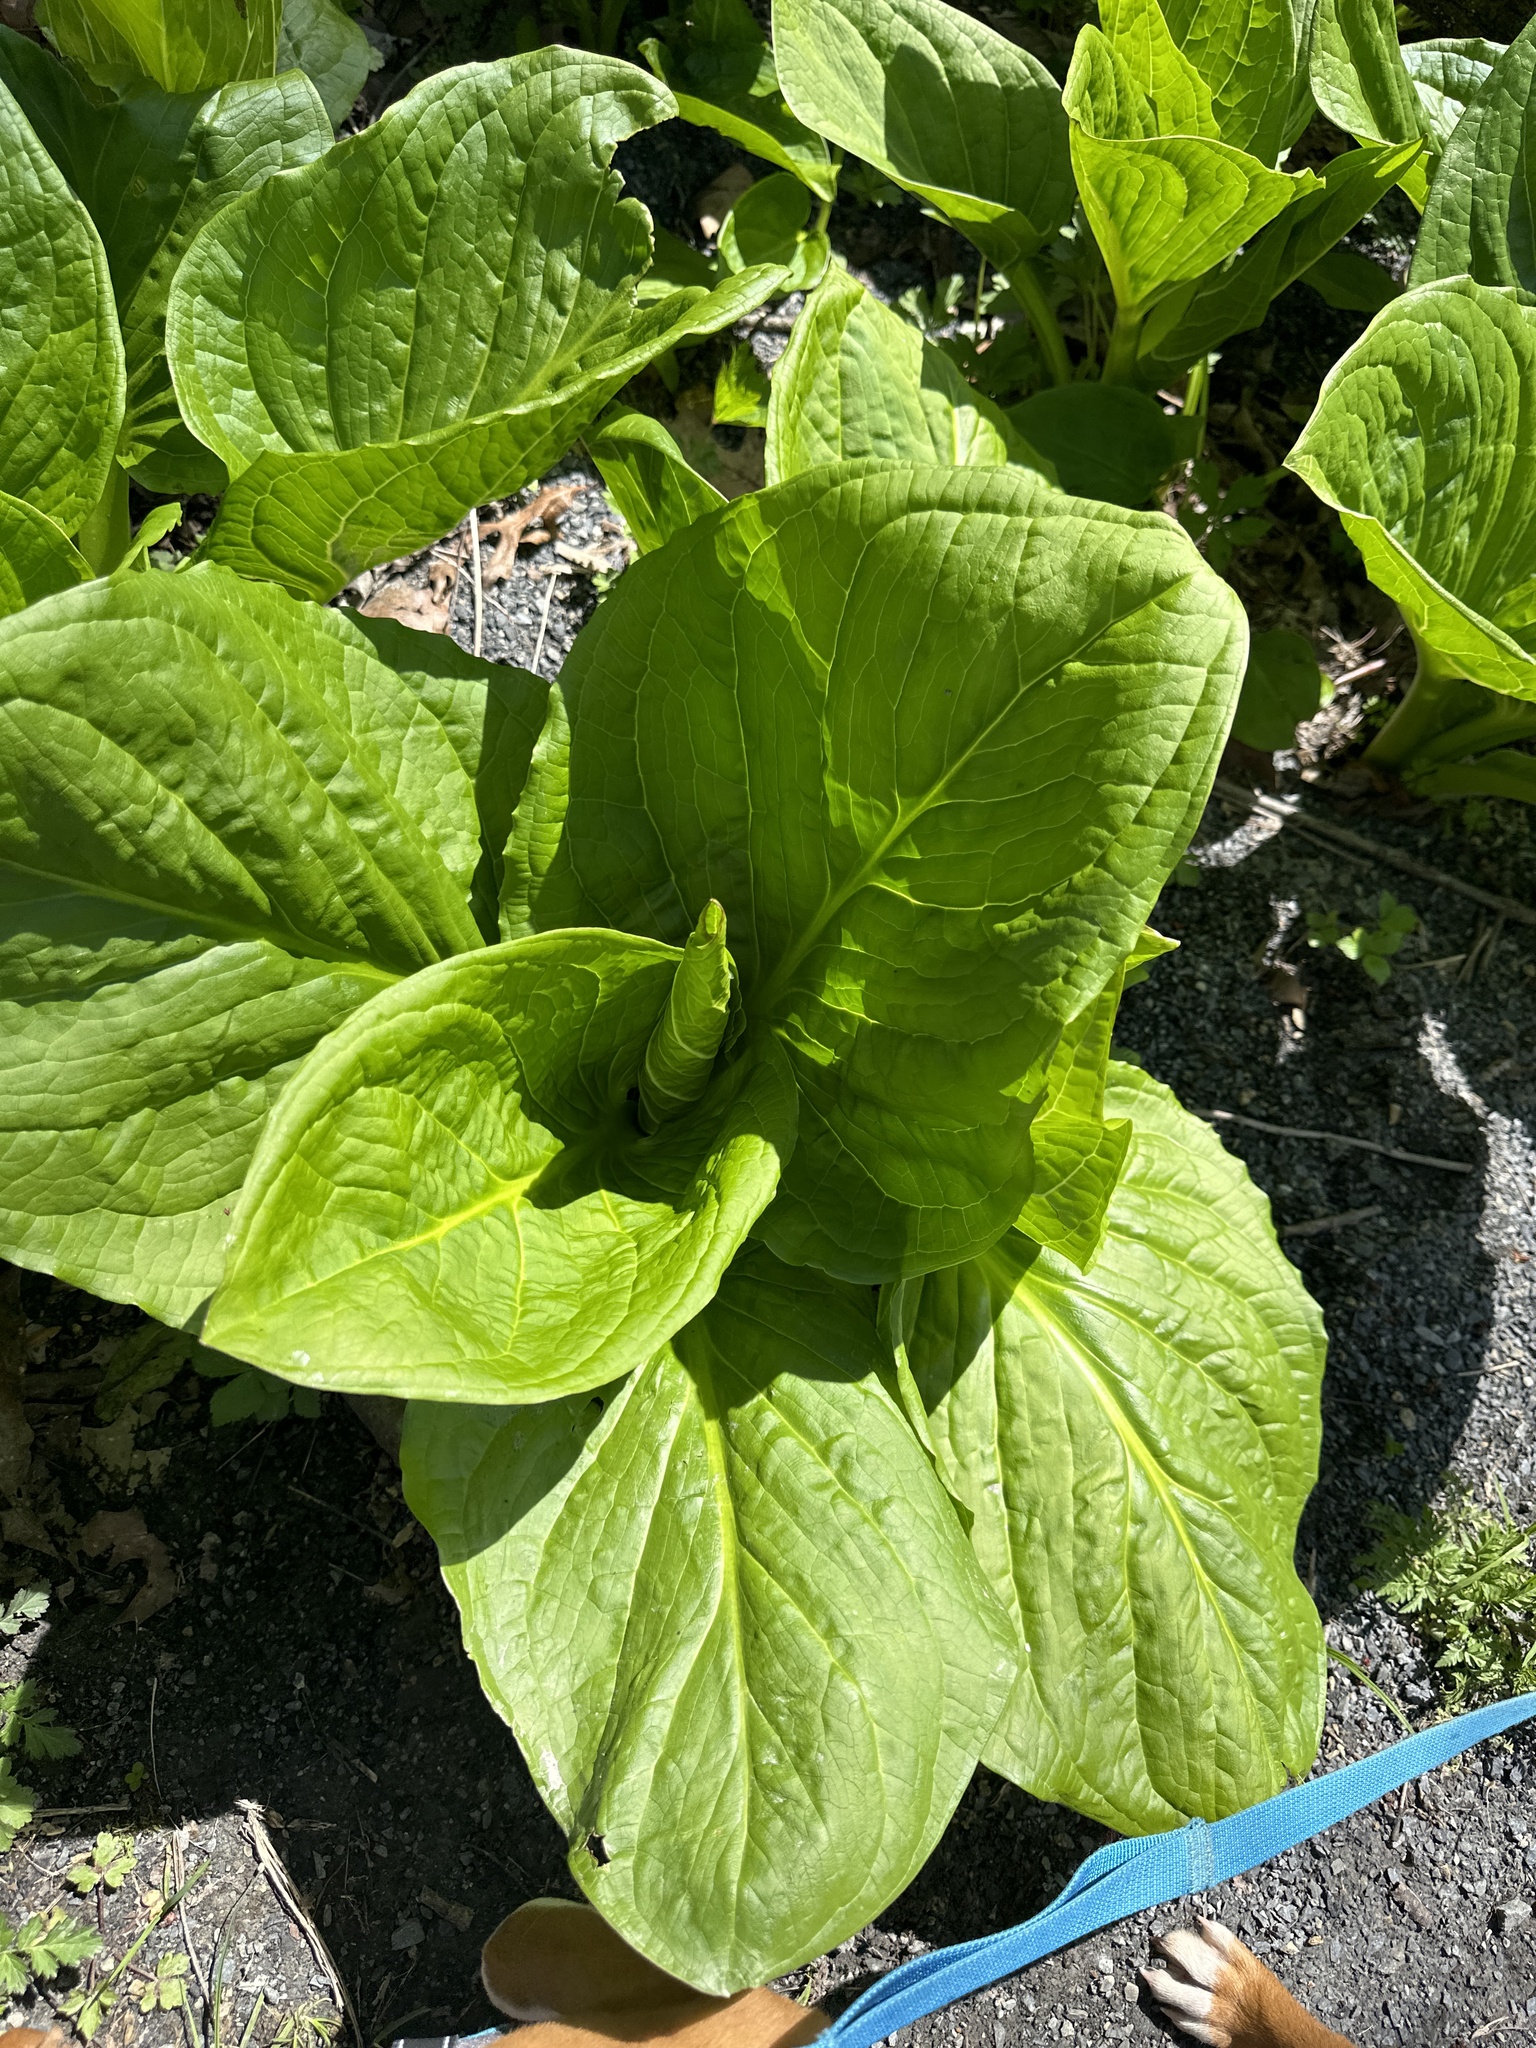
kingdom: Plantae
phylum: Tracheophyta
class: Liliopsida
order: Alismatales
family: Araceae
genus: Symplocarpus
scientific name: Symplocarpus foetidus
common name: Eastern skunk cabbage
